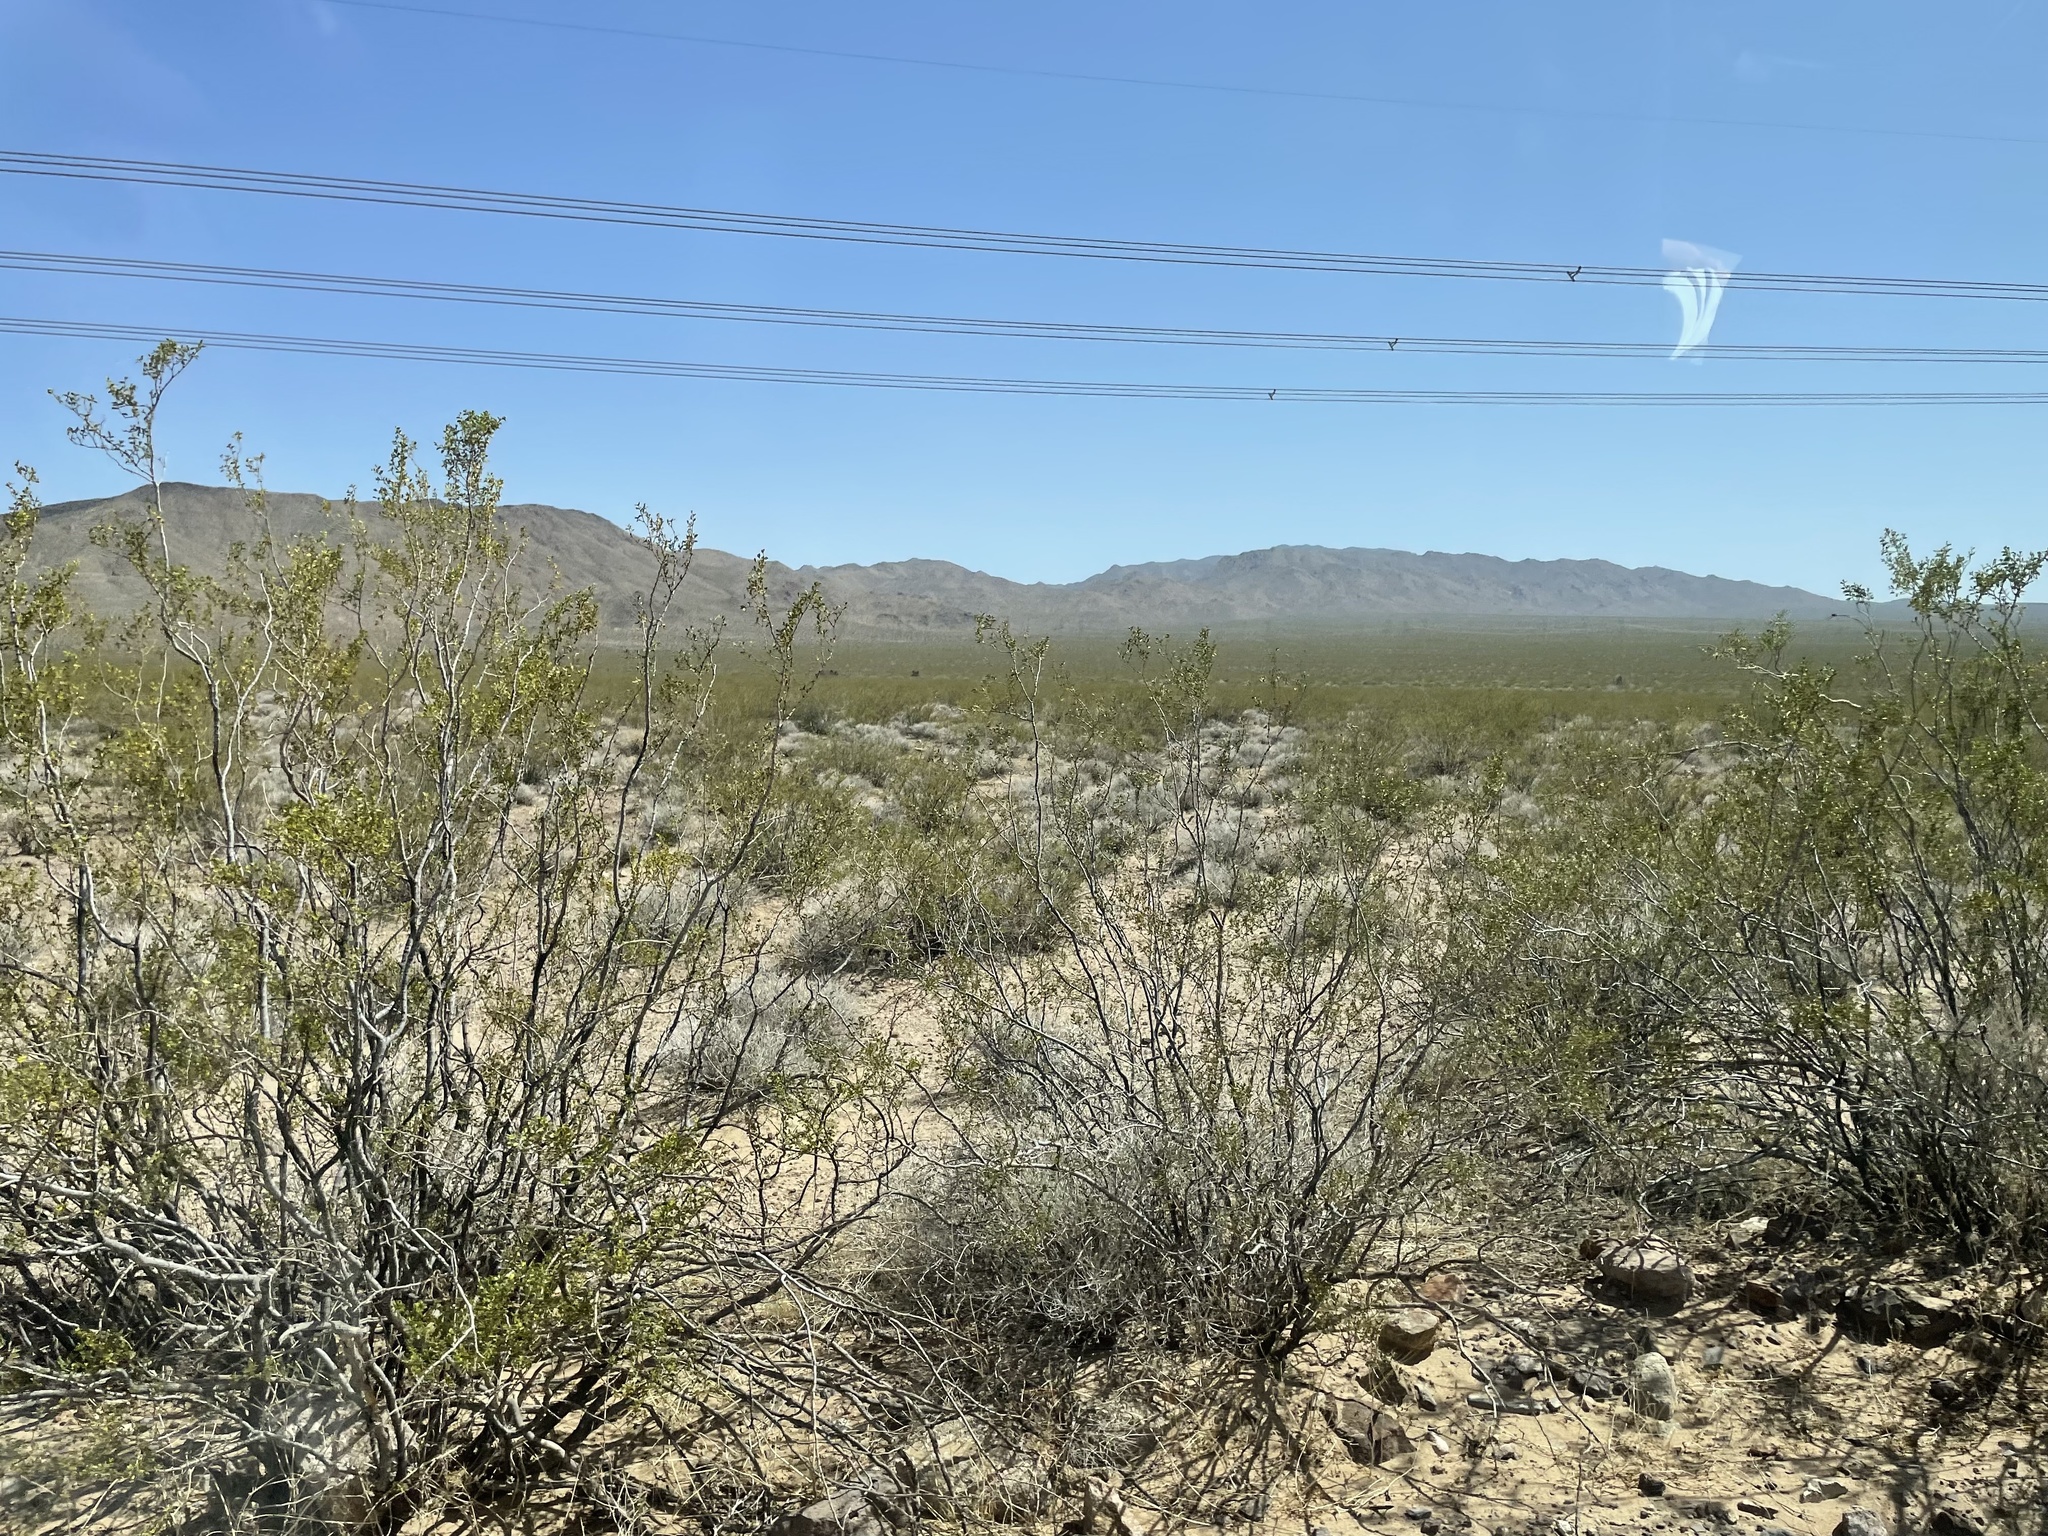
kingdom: Plantae
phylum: Tracheophyta
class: Magnoliopsida
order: Zygophyllales
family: Zygophyllaceae
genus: Larrea
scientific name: Larrea tridentata
